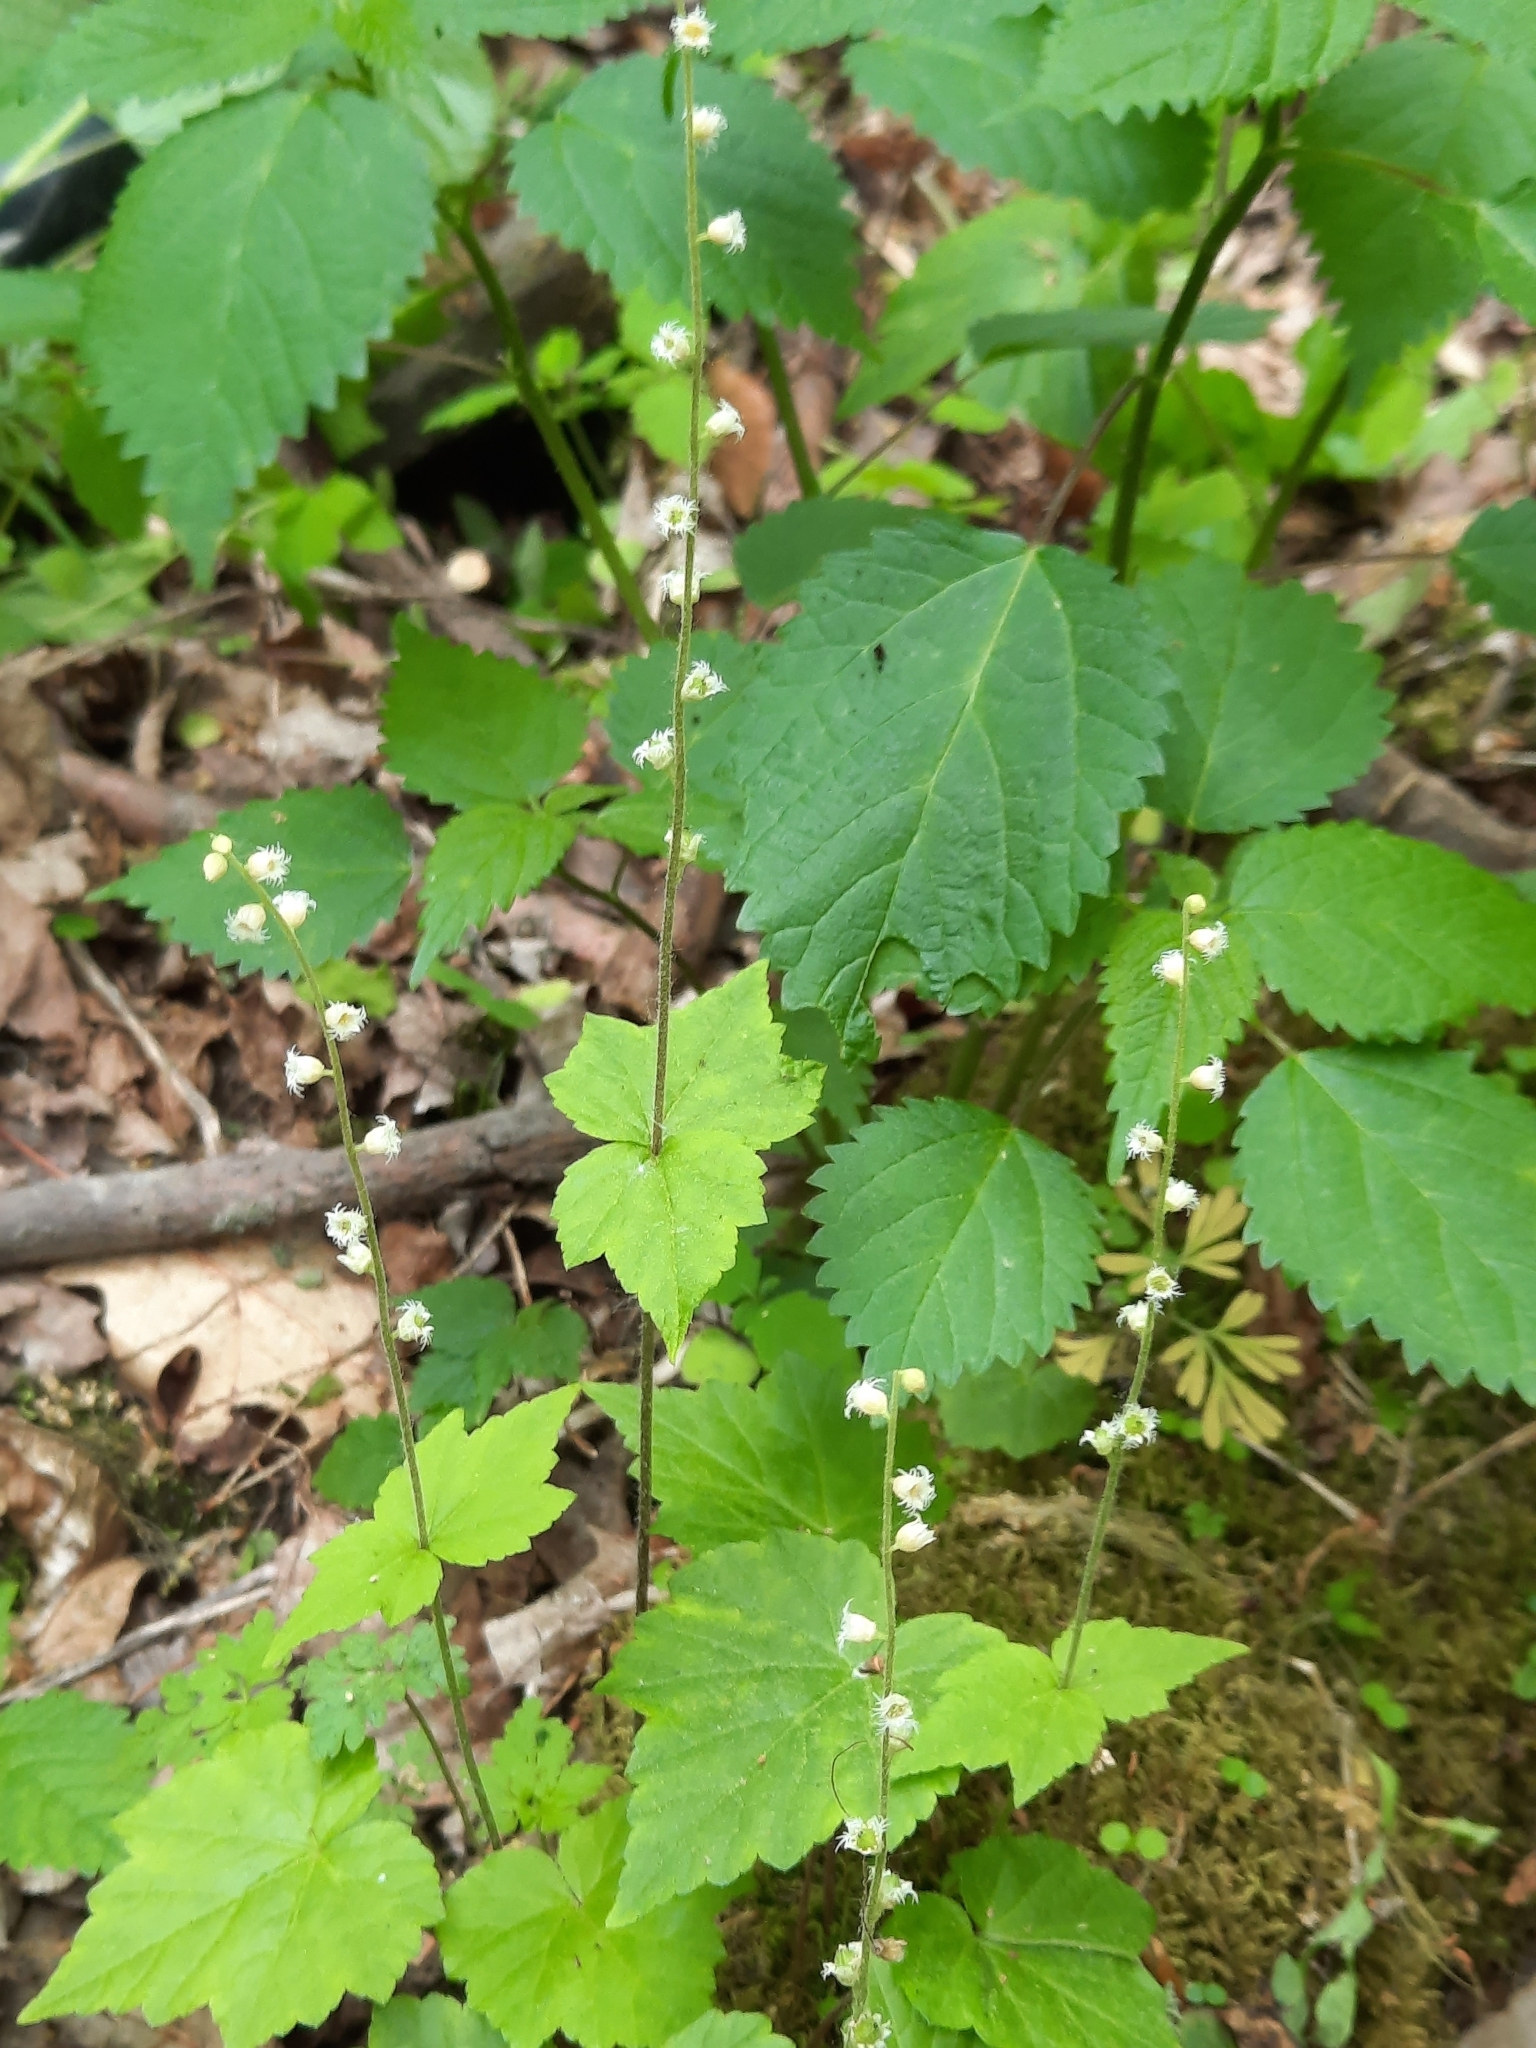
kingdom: Plantae
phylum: Tracheophyta
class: Magnoliopsida
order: Saxifragales
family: Saxifragaceae
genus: Mitella
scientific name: Mitella diphylla
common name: Coolwort
